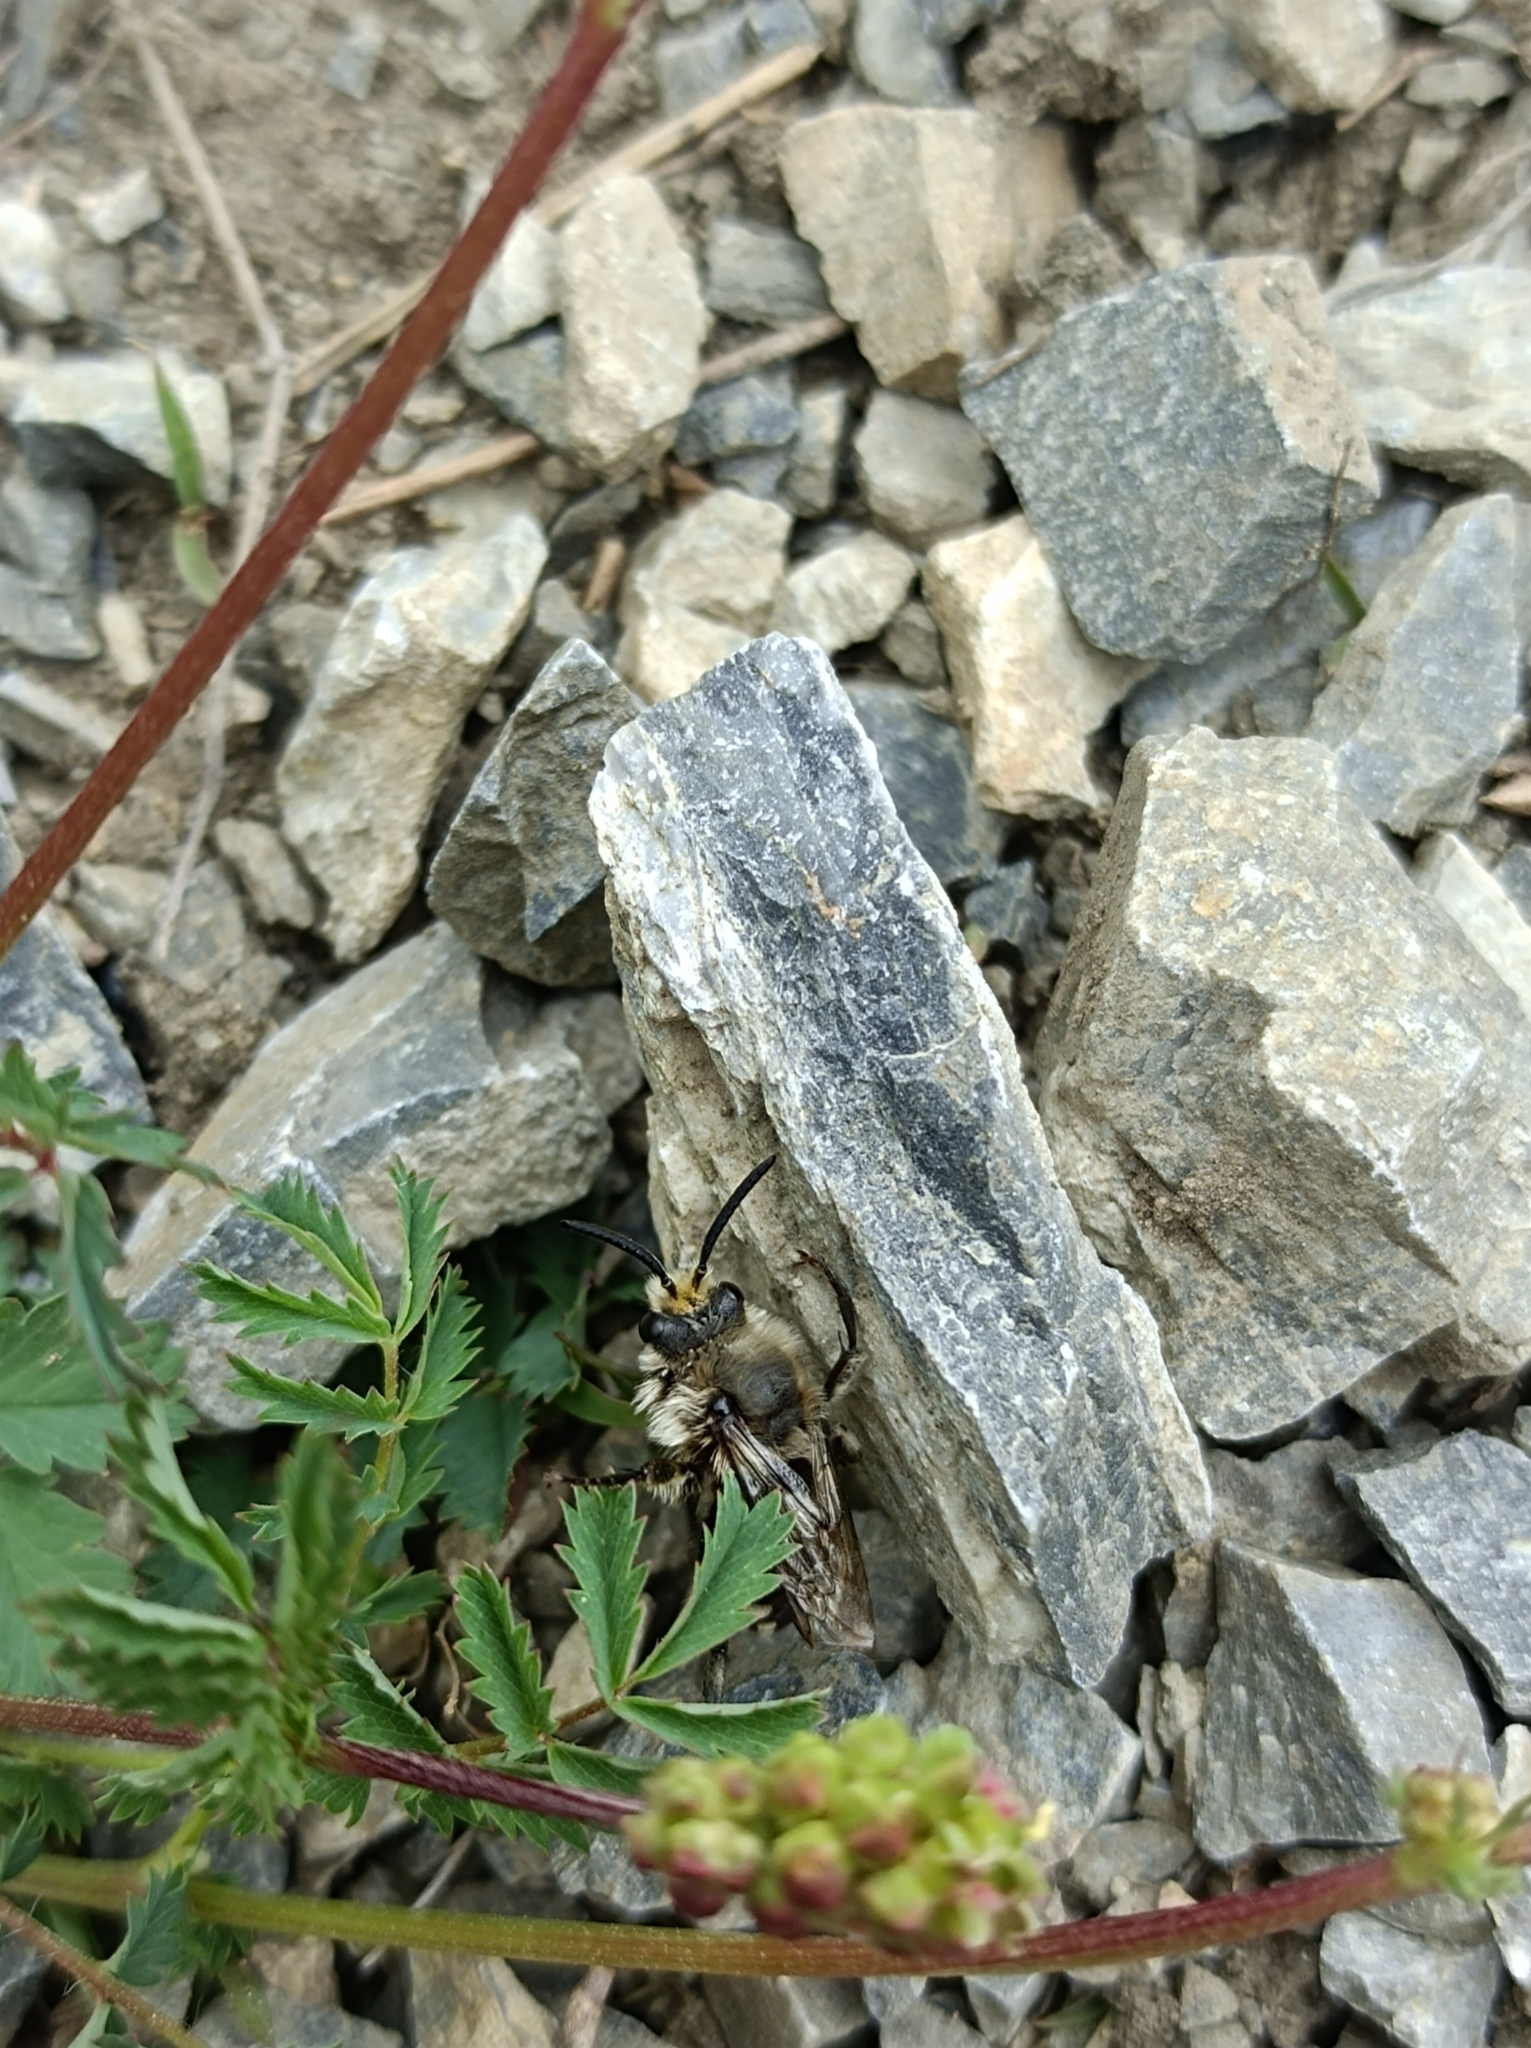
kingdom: Animalia
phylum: Arthropoda
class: Insecta
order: Hymenoptera
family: Apidae
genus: Melecta
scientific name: Melecta albifrons
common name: Common mourning bee
